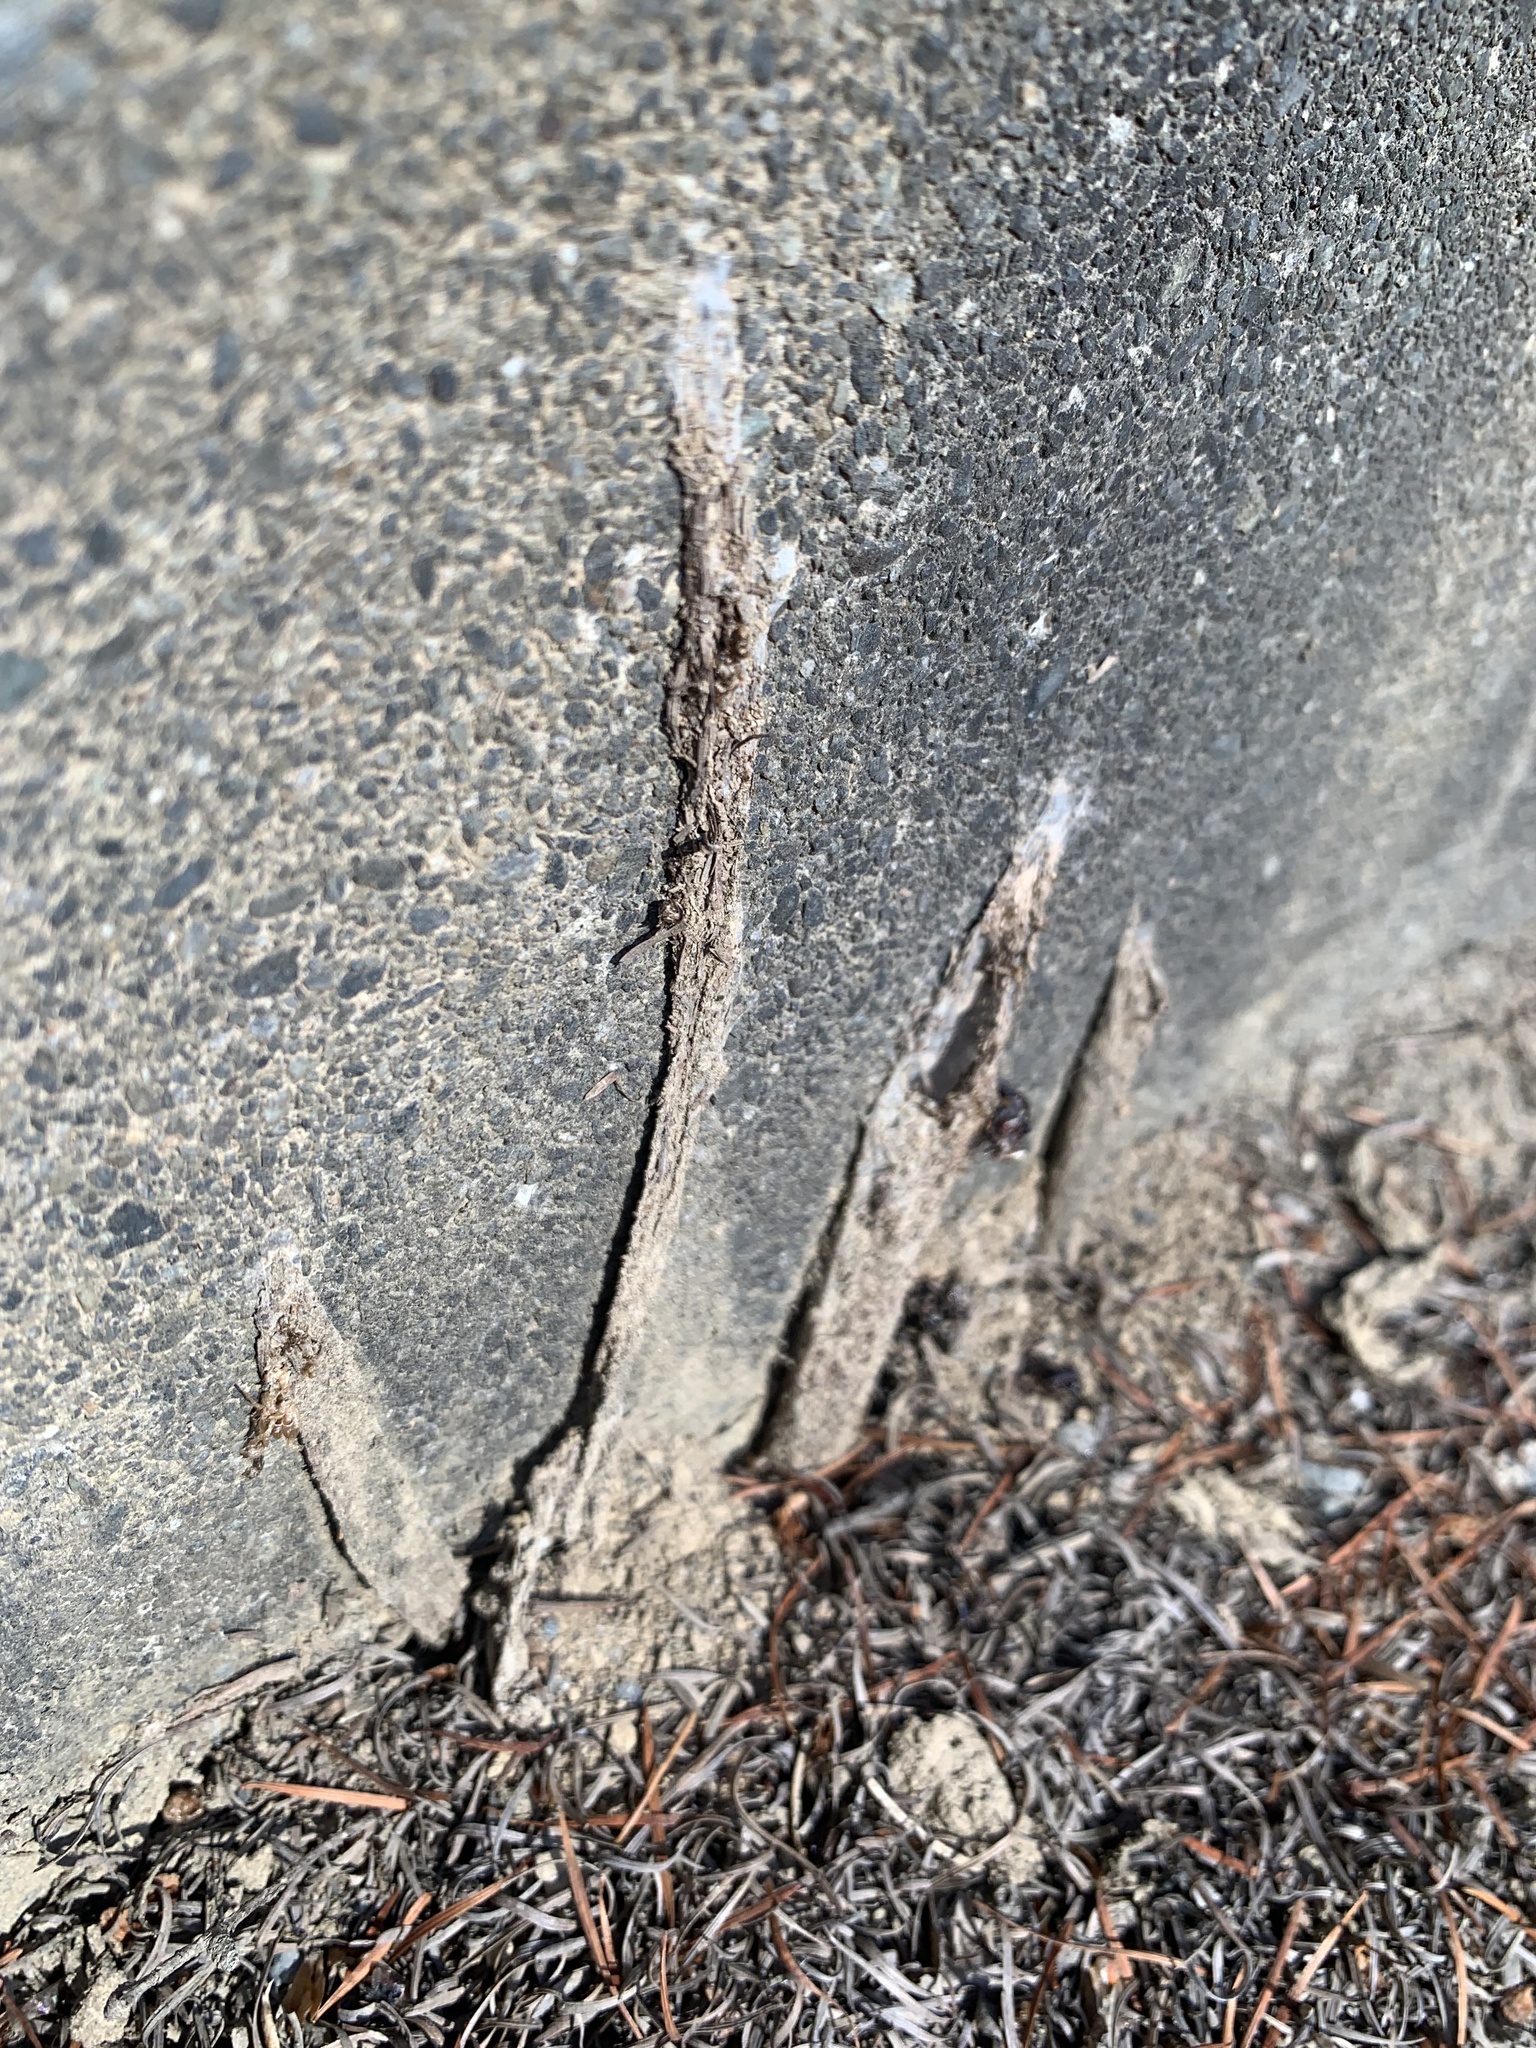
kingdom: Animalia
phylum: Arthropoda
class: Arachnida
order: Araneae
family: Atypidae
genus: Atypus
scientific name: Atypus karschi
